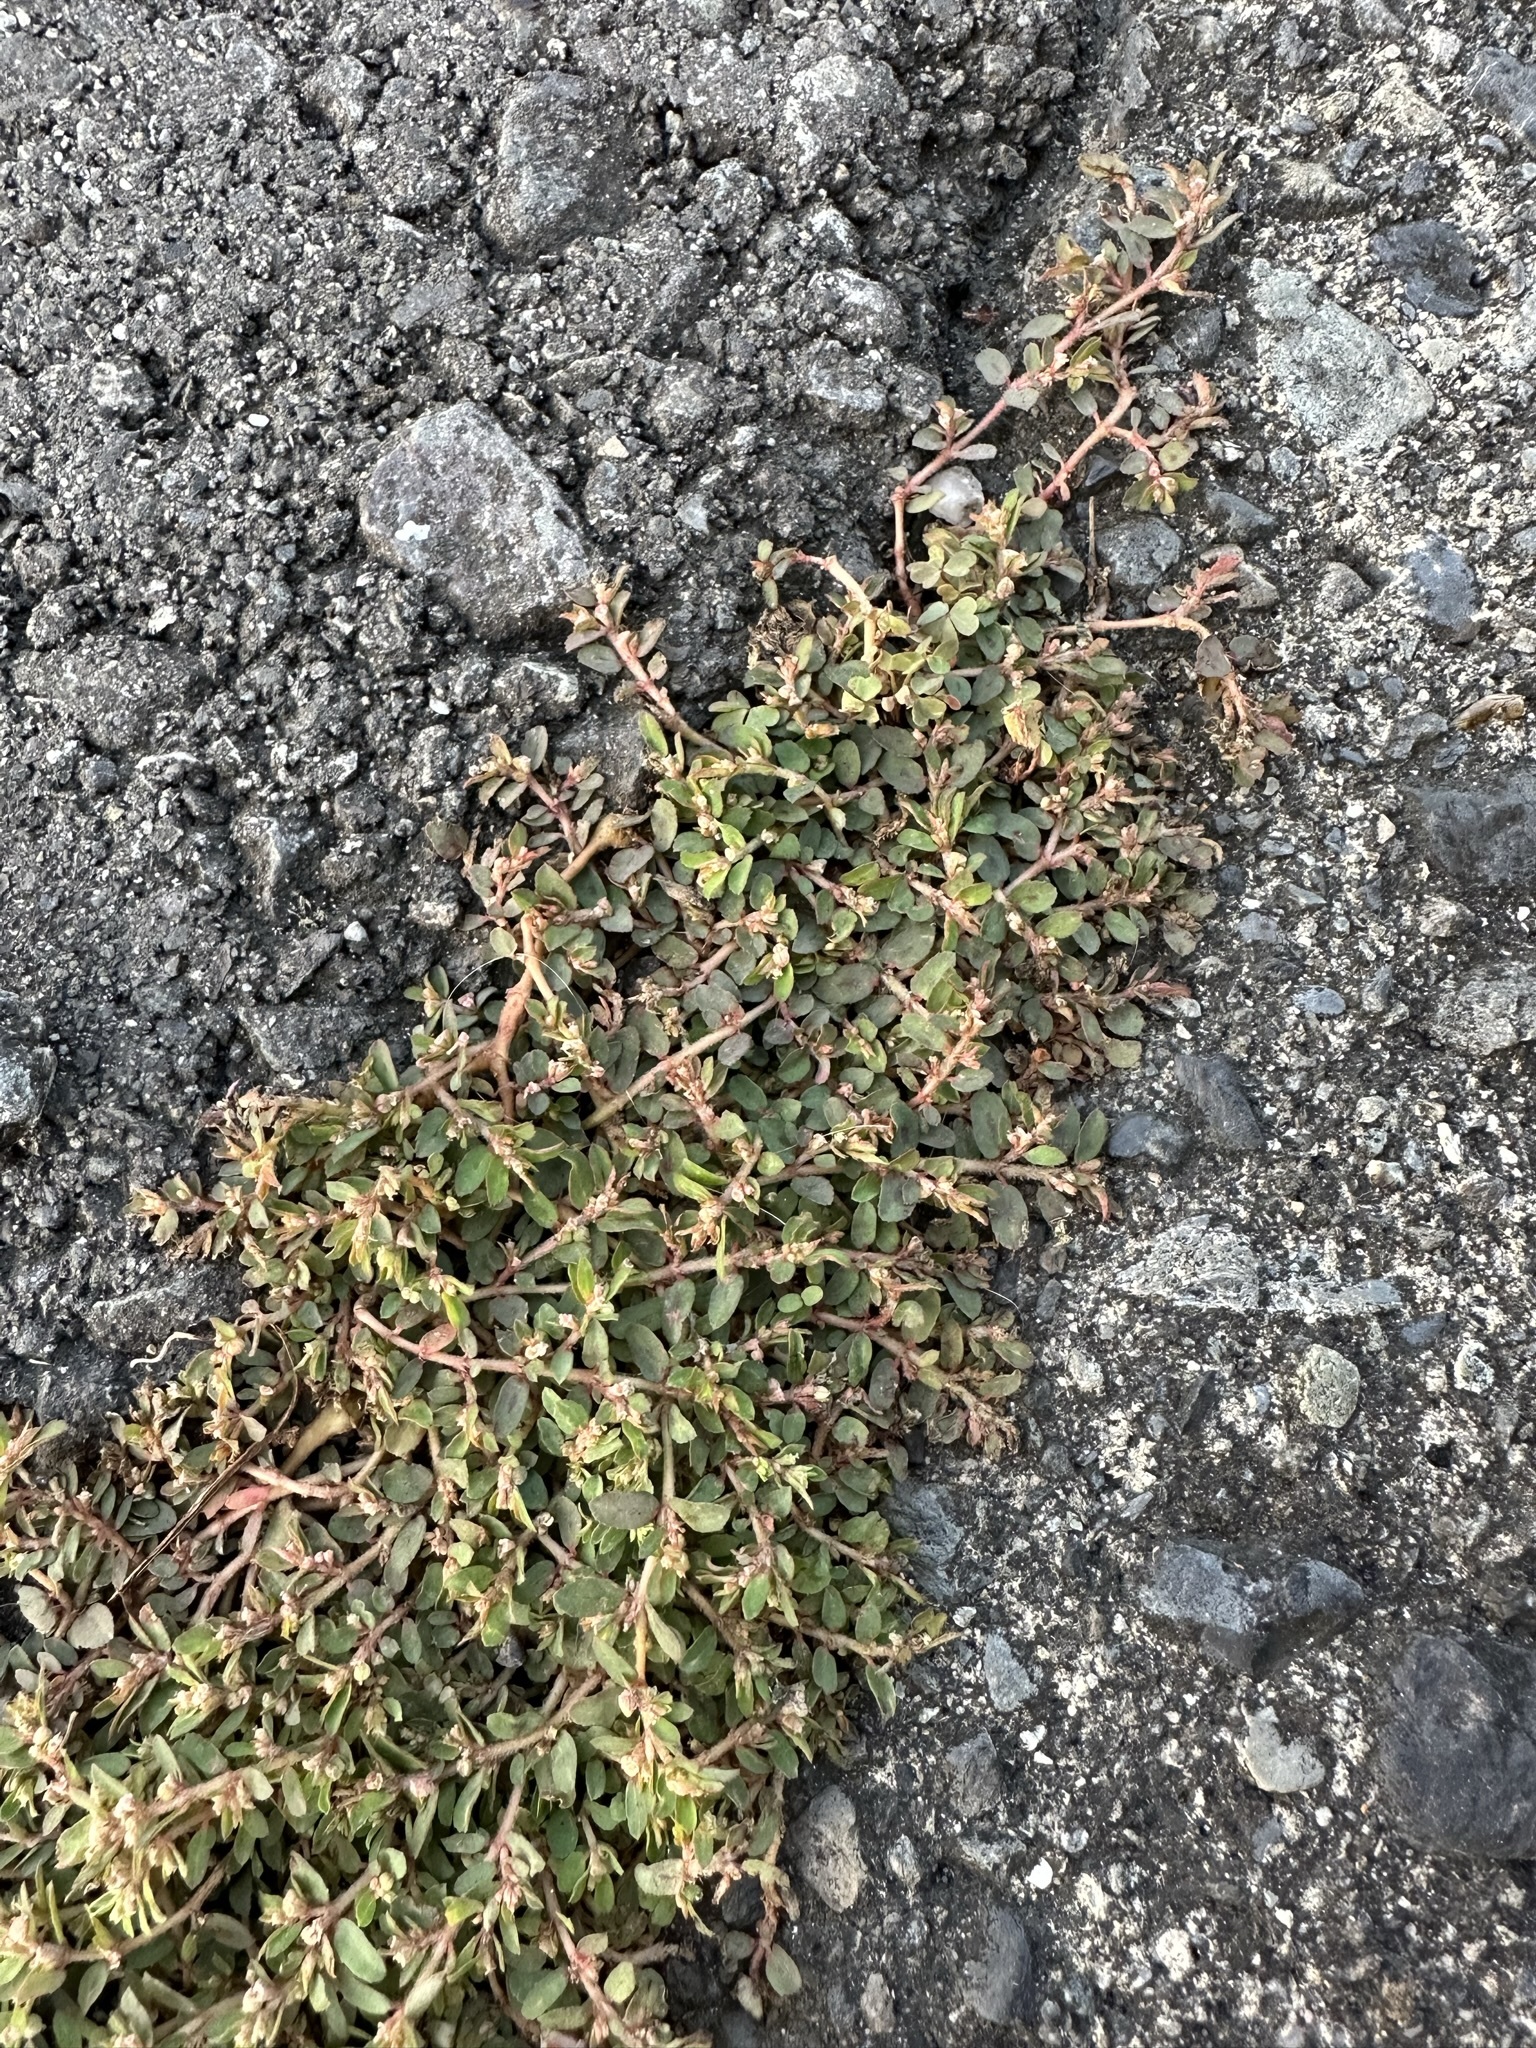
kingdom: Plantae
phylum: Tracheophyta
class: Magnoliopsida
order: Malpighiales
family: Euphorbiaceae
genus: Euphorbia
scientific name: Euphorbia maculata
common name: Spotted spurge
